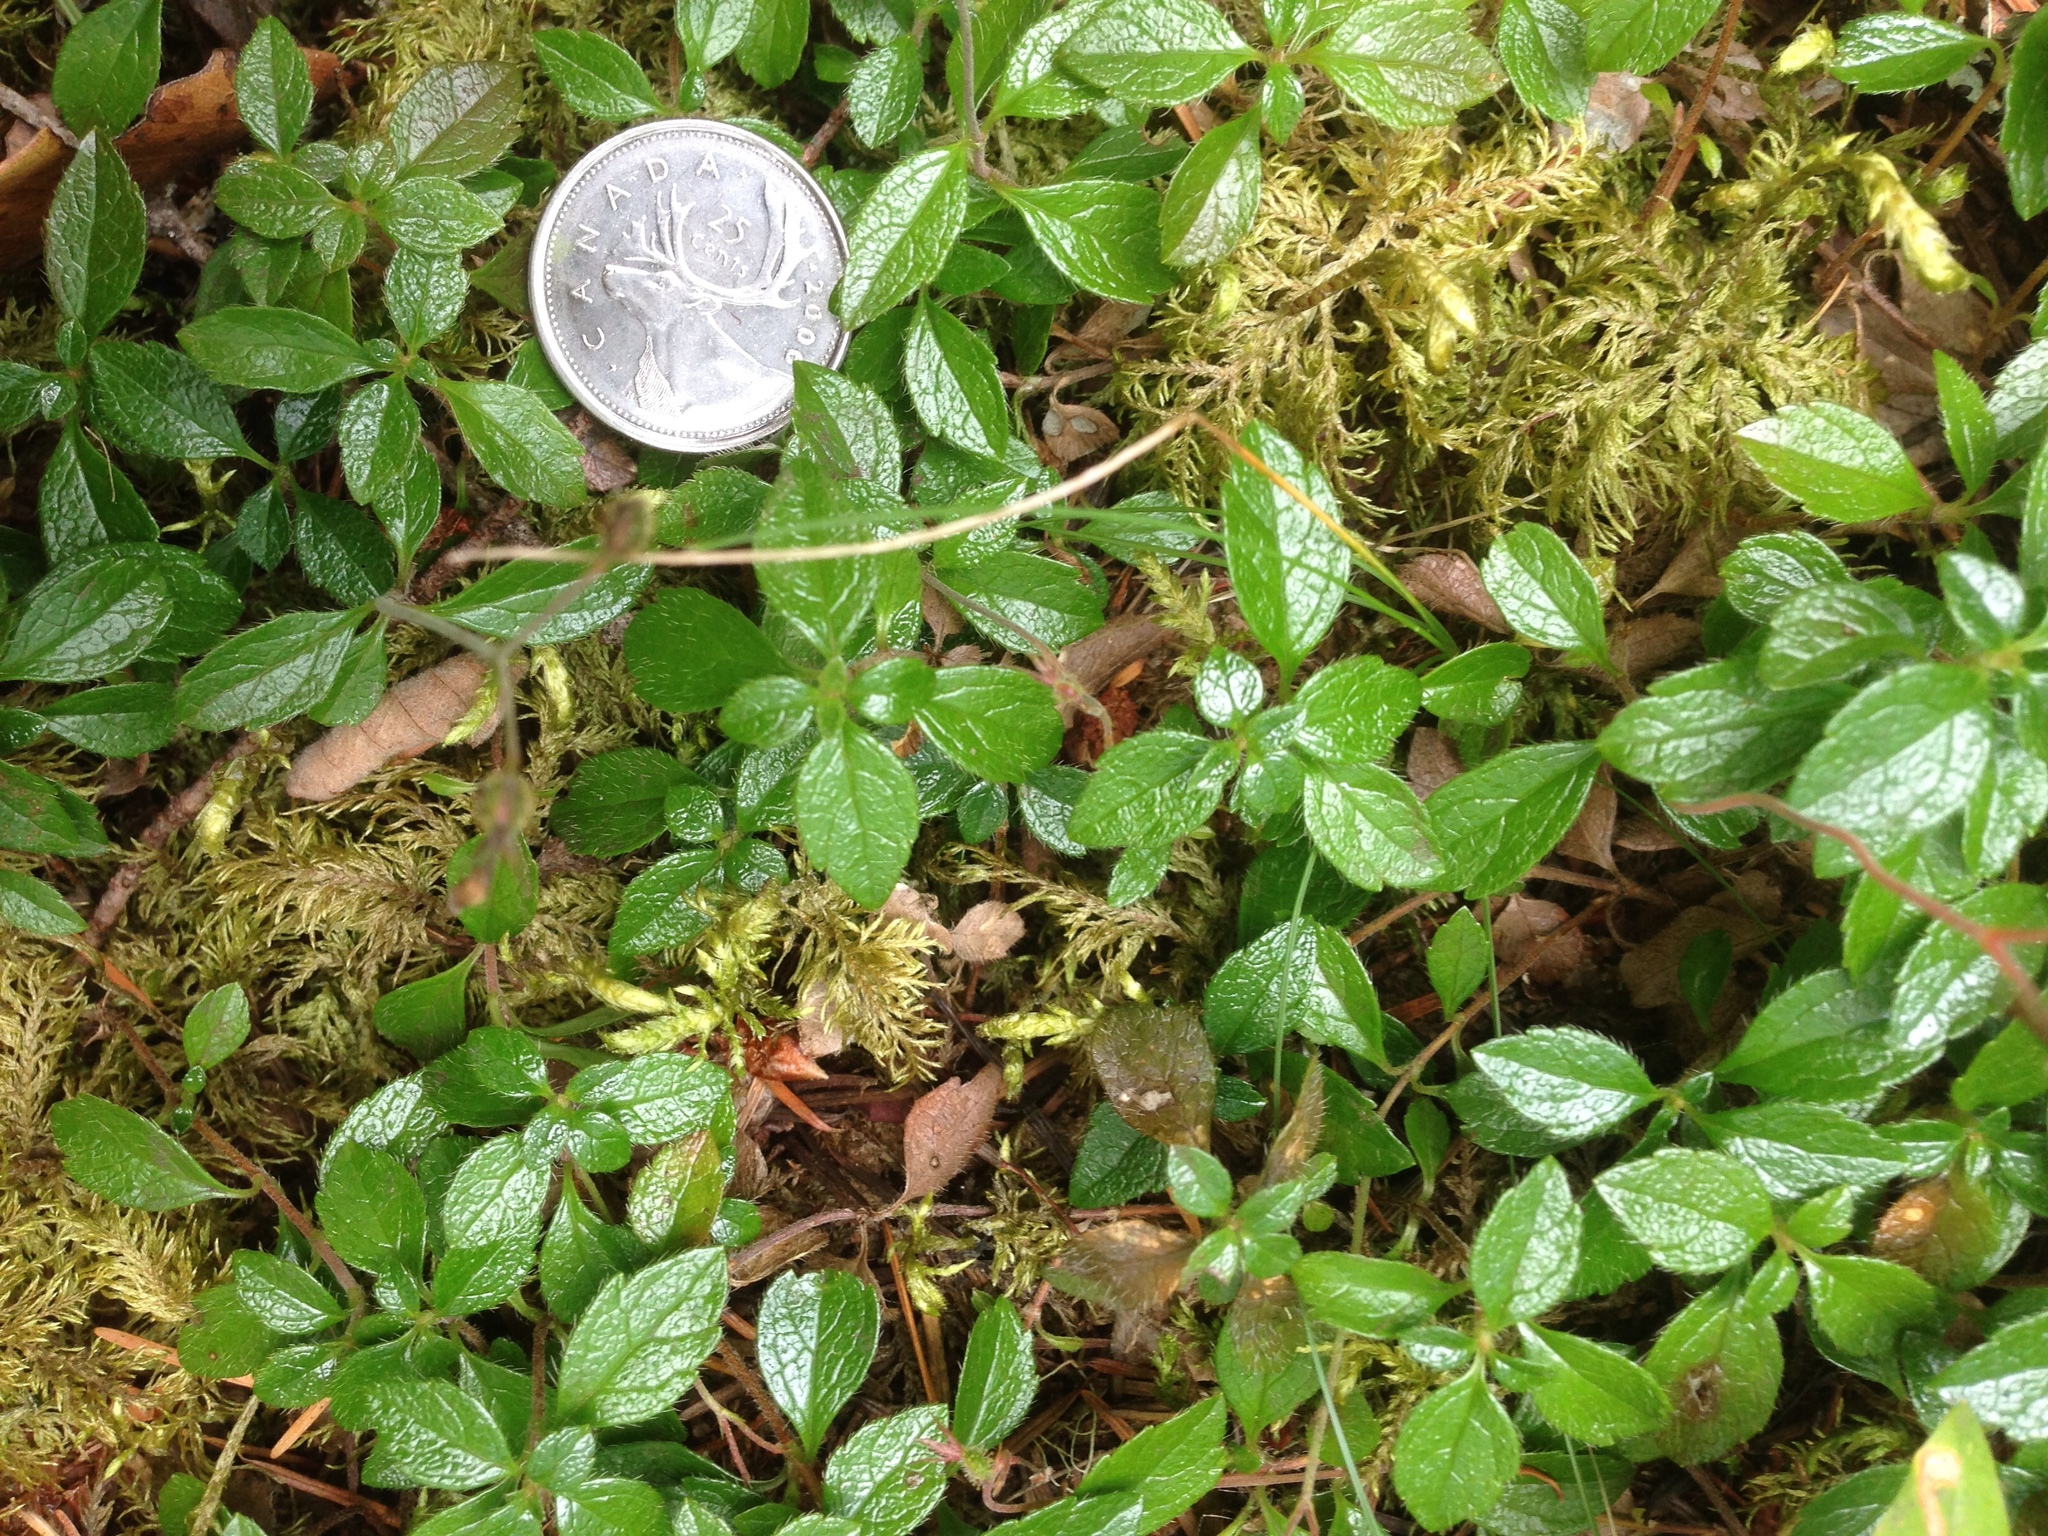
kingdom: Plantae
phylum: Tracheophyta
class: Magnoliopsida
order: Dipsacales
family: Caprifoliaceae
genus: Linnaea
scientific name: Linnaea borealis
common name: Twinflower
